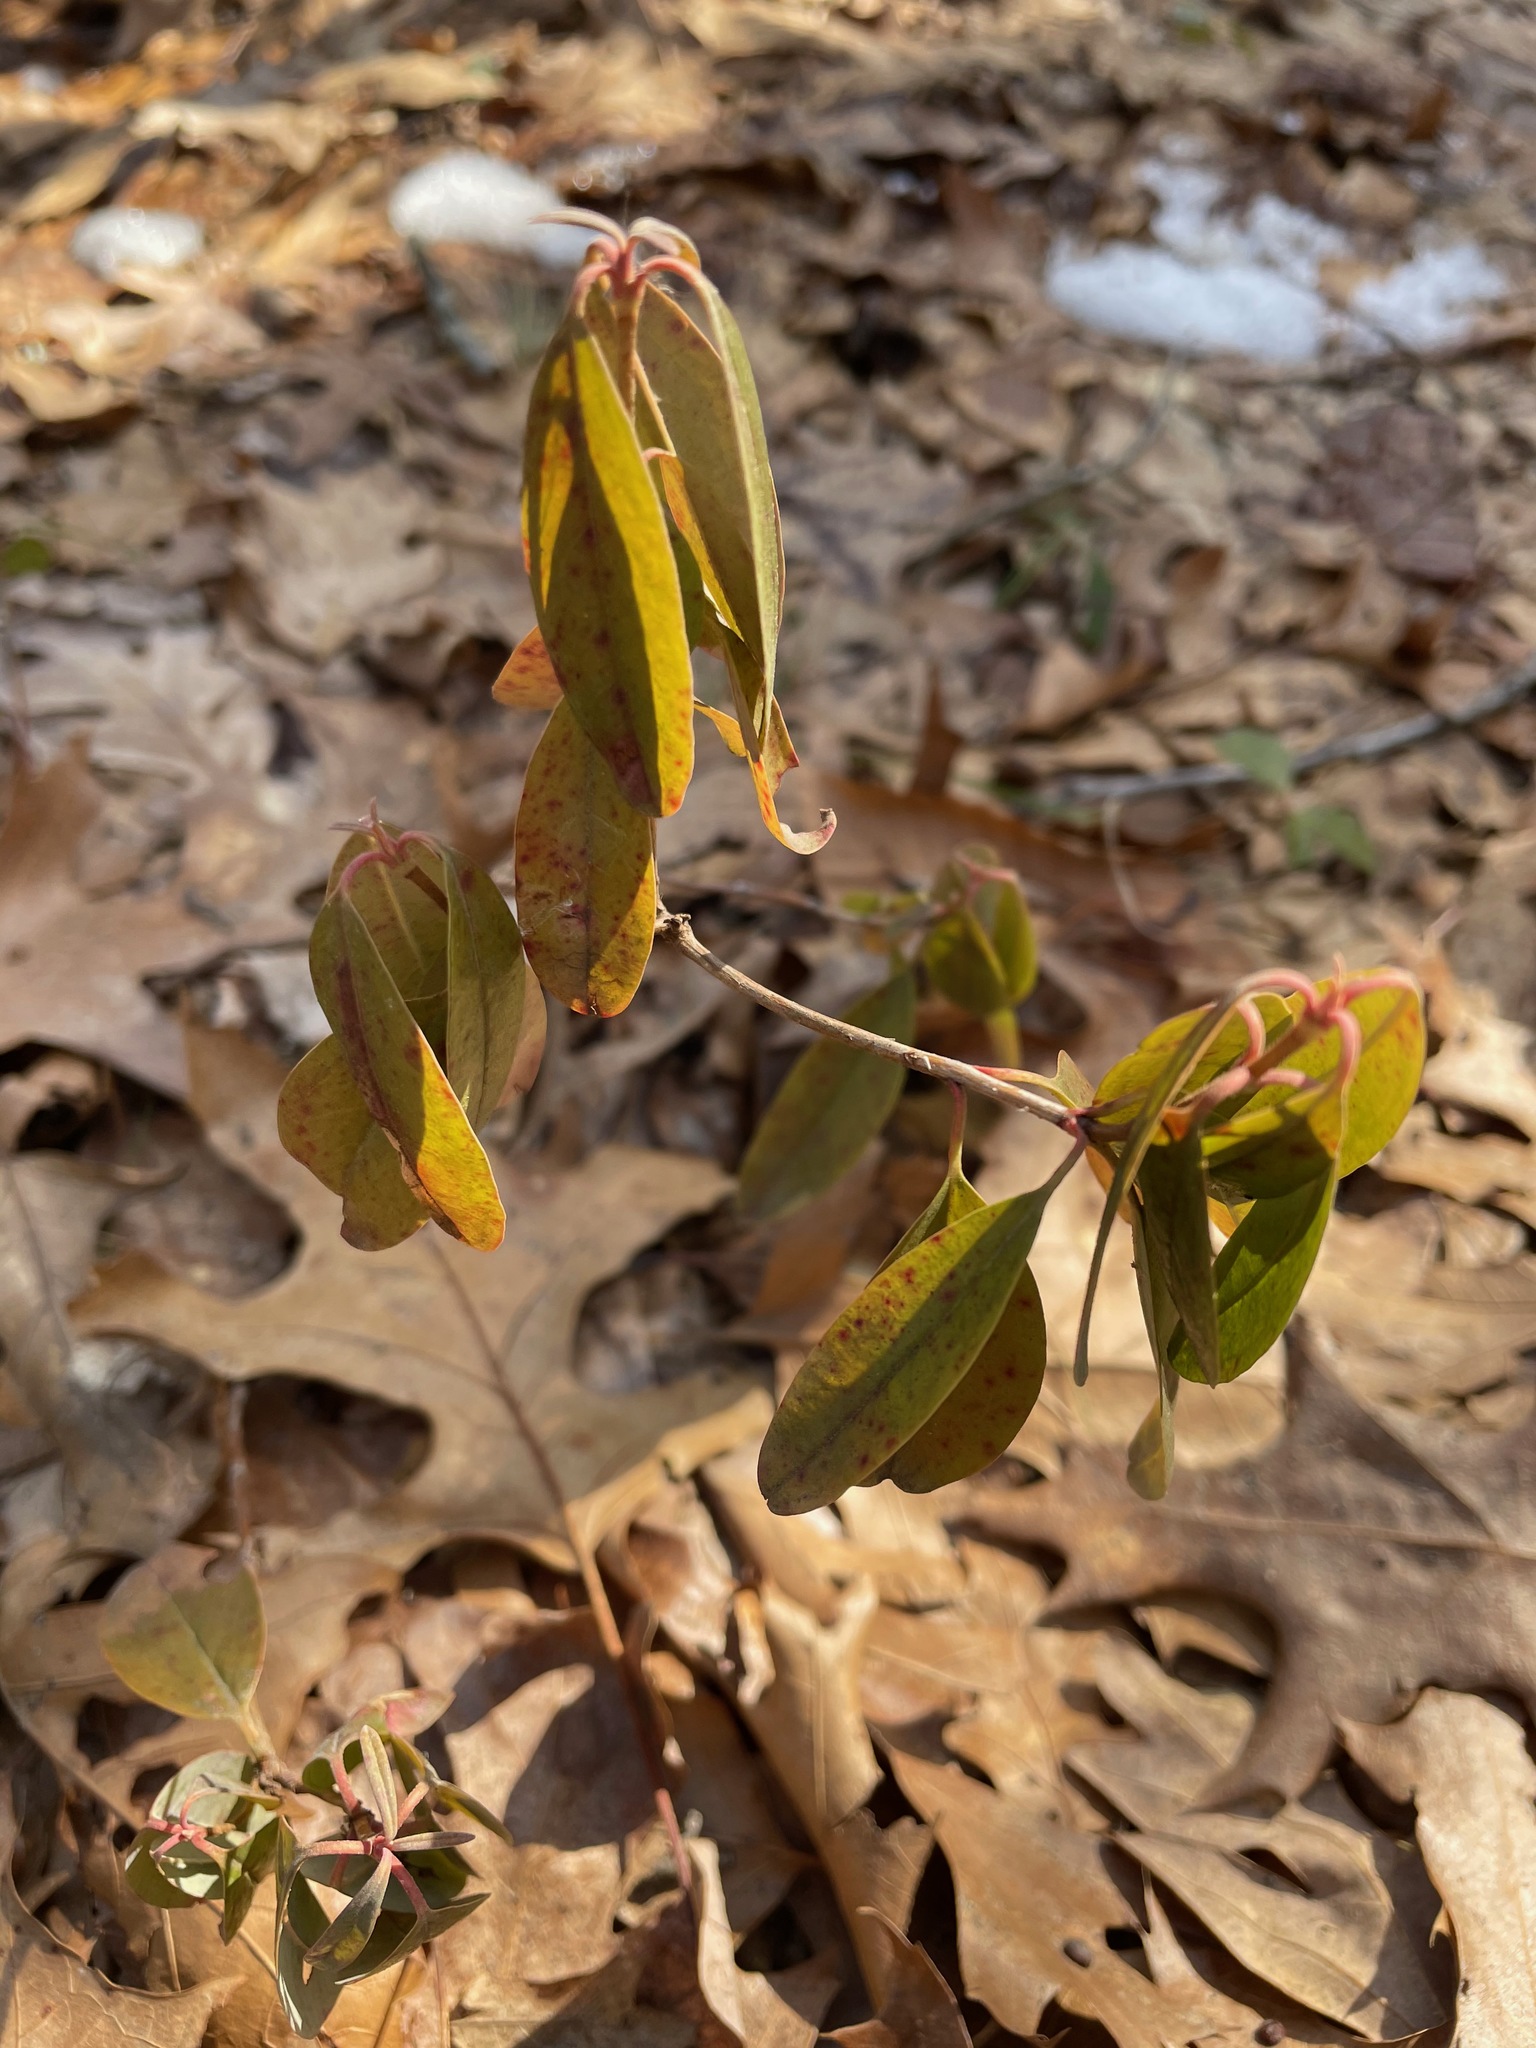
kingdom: Plantae
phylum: Tracheophyta
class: Magnoliopsida
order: Ericales
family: Ericaceae
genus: Kalmia
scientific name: Kalmia angustifolia
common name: Sheep-laurel
